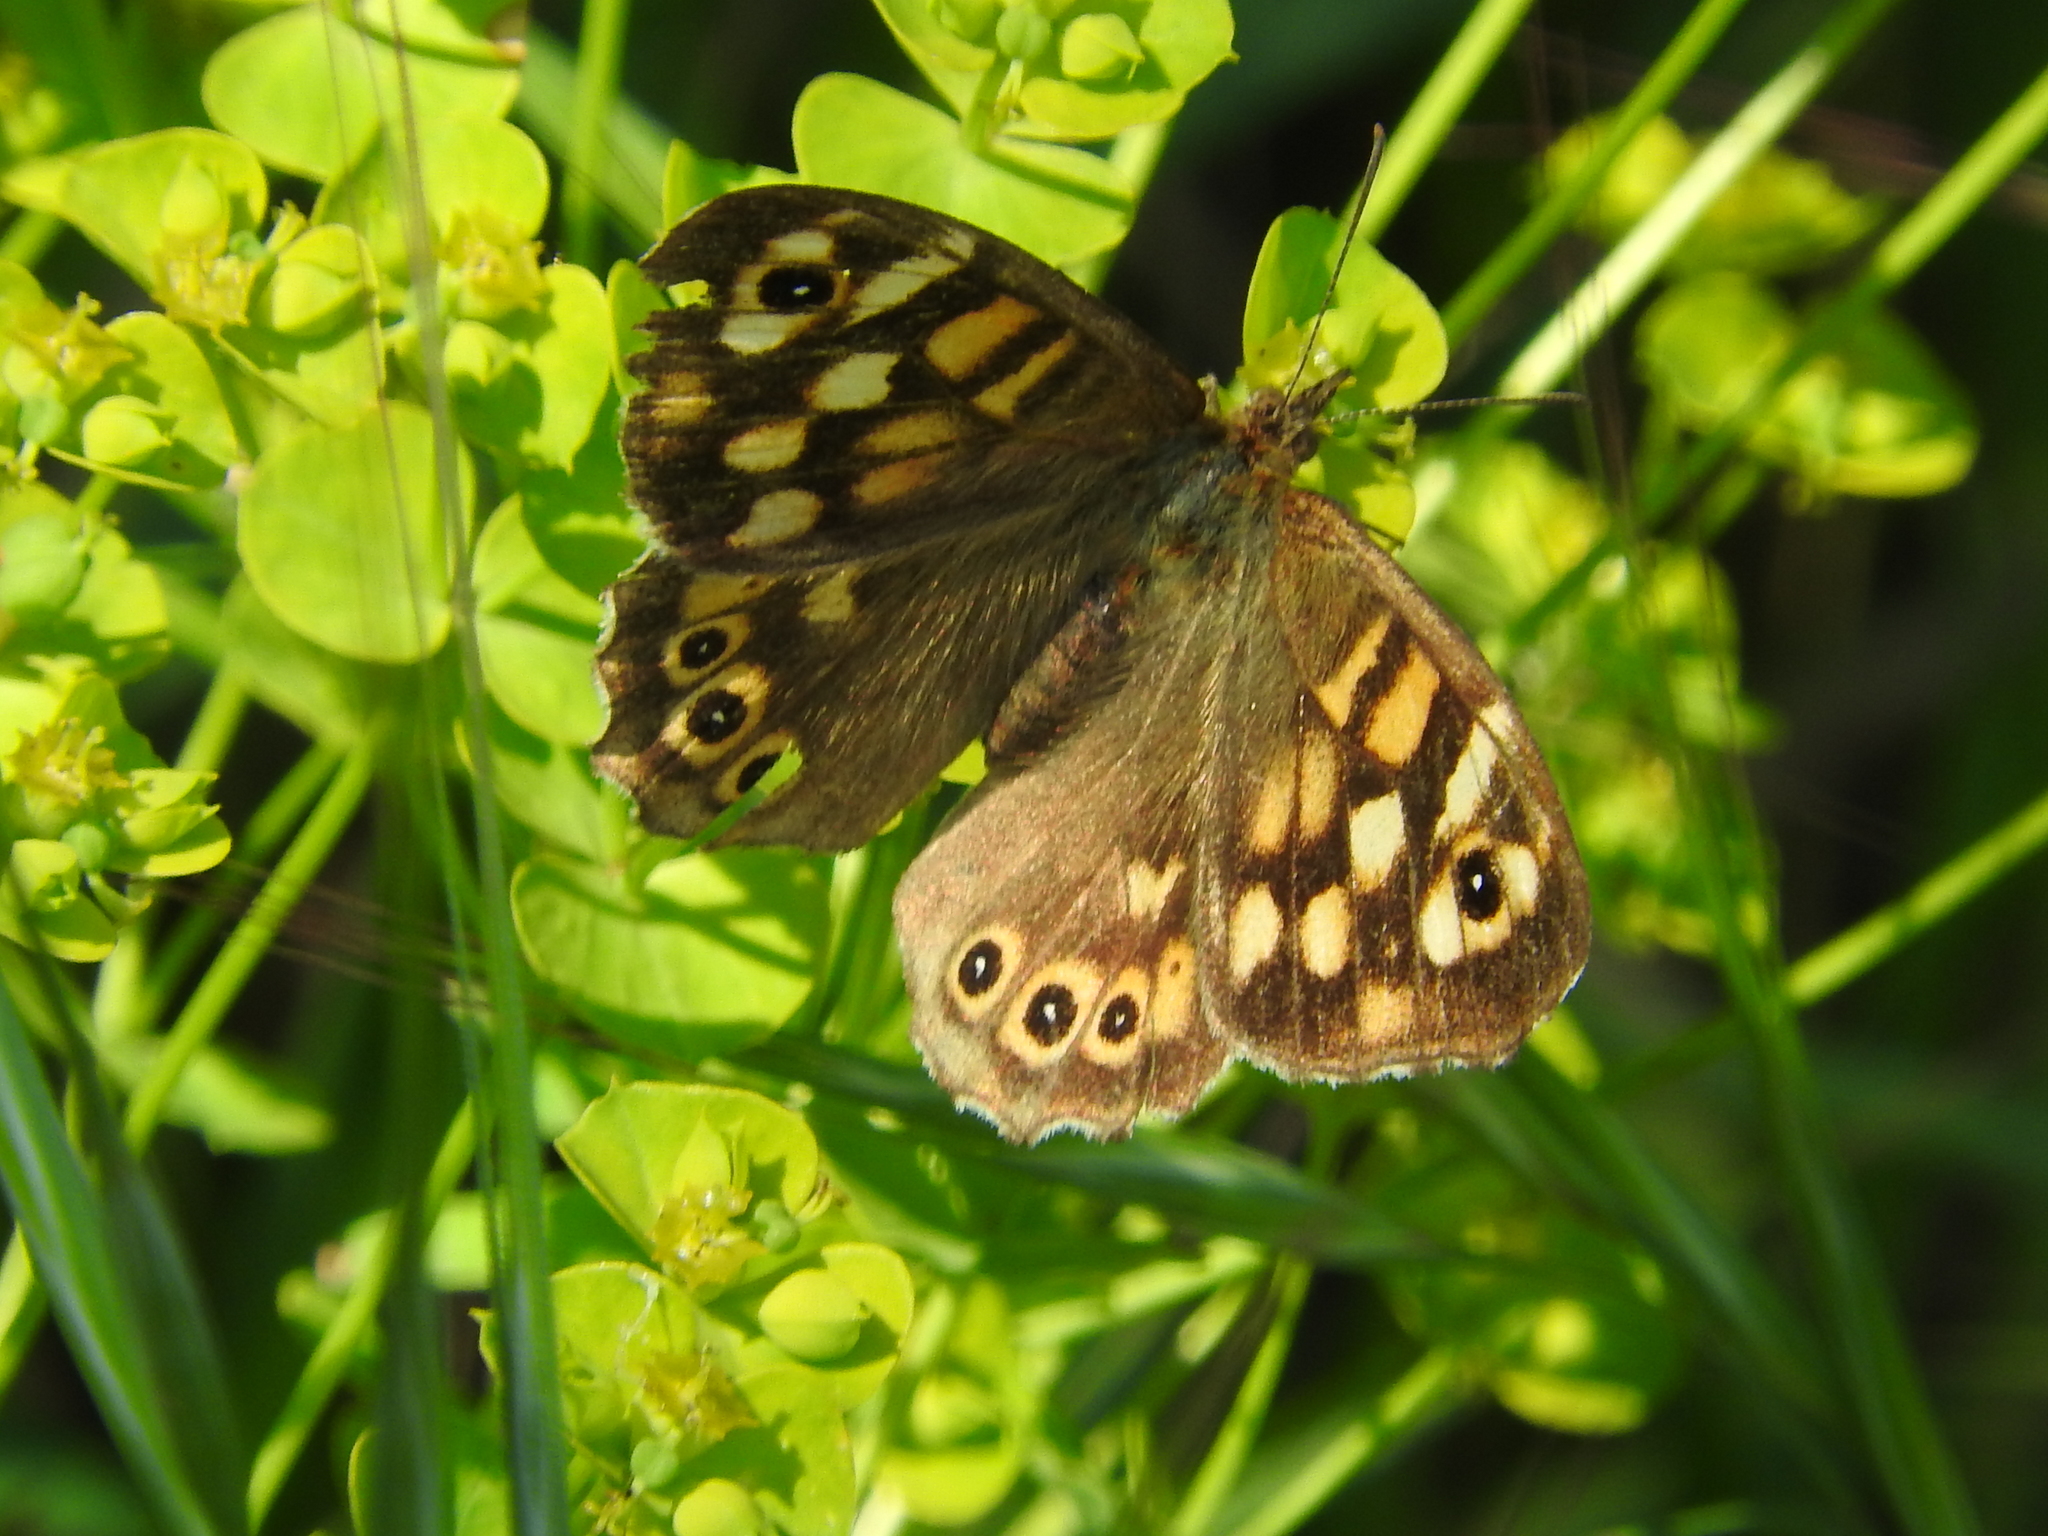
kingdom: Animalia
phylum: Arthropoda
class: Insecta
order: Lepidoptera
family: Nymphalidae
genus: Pararge
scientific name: Pararge aegeria
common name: Speckled wood
